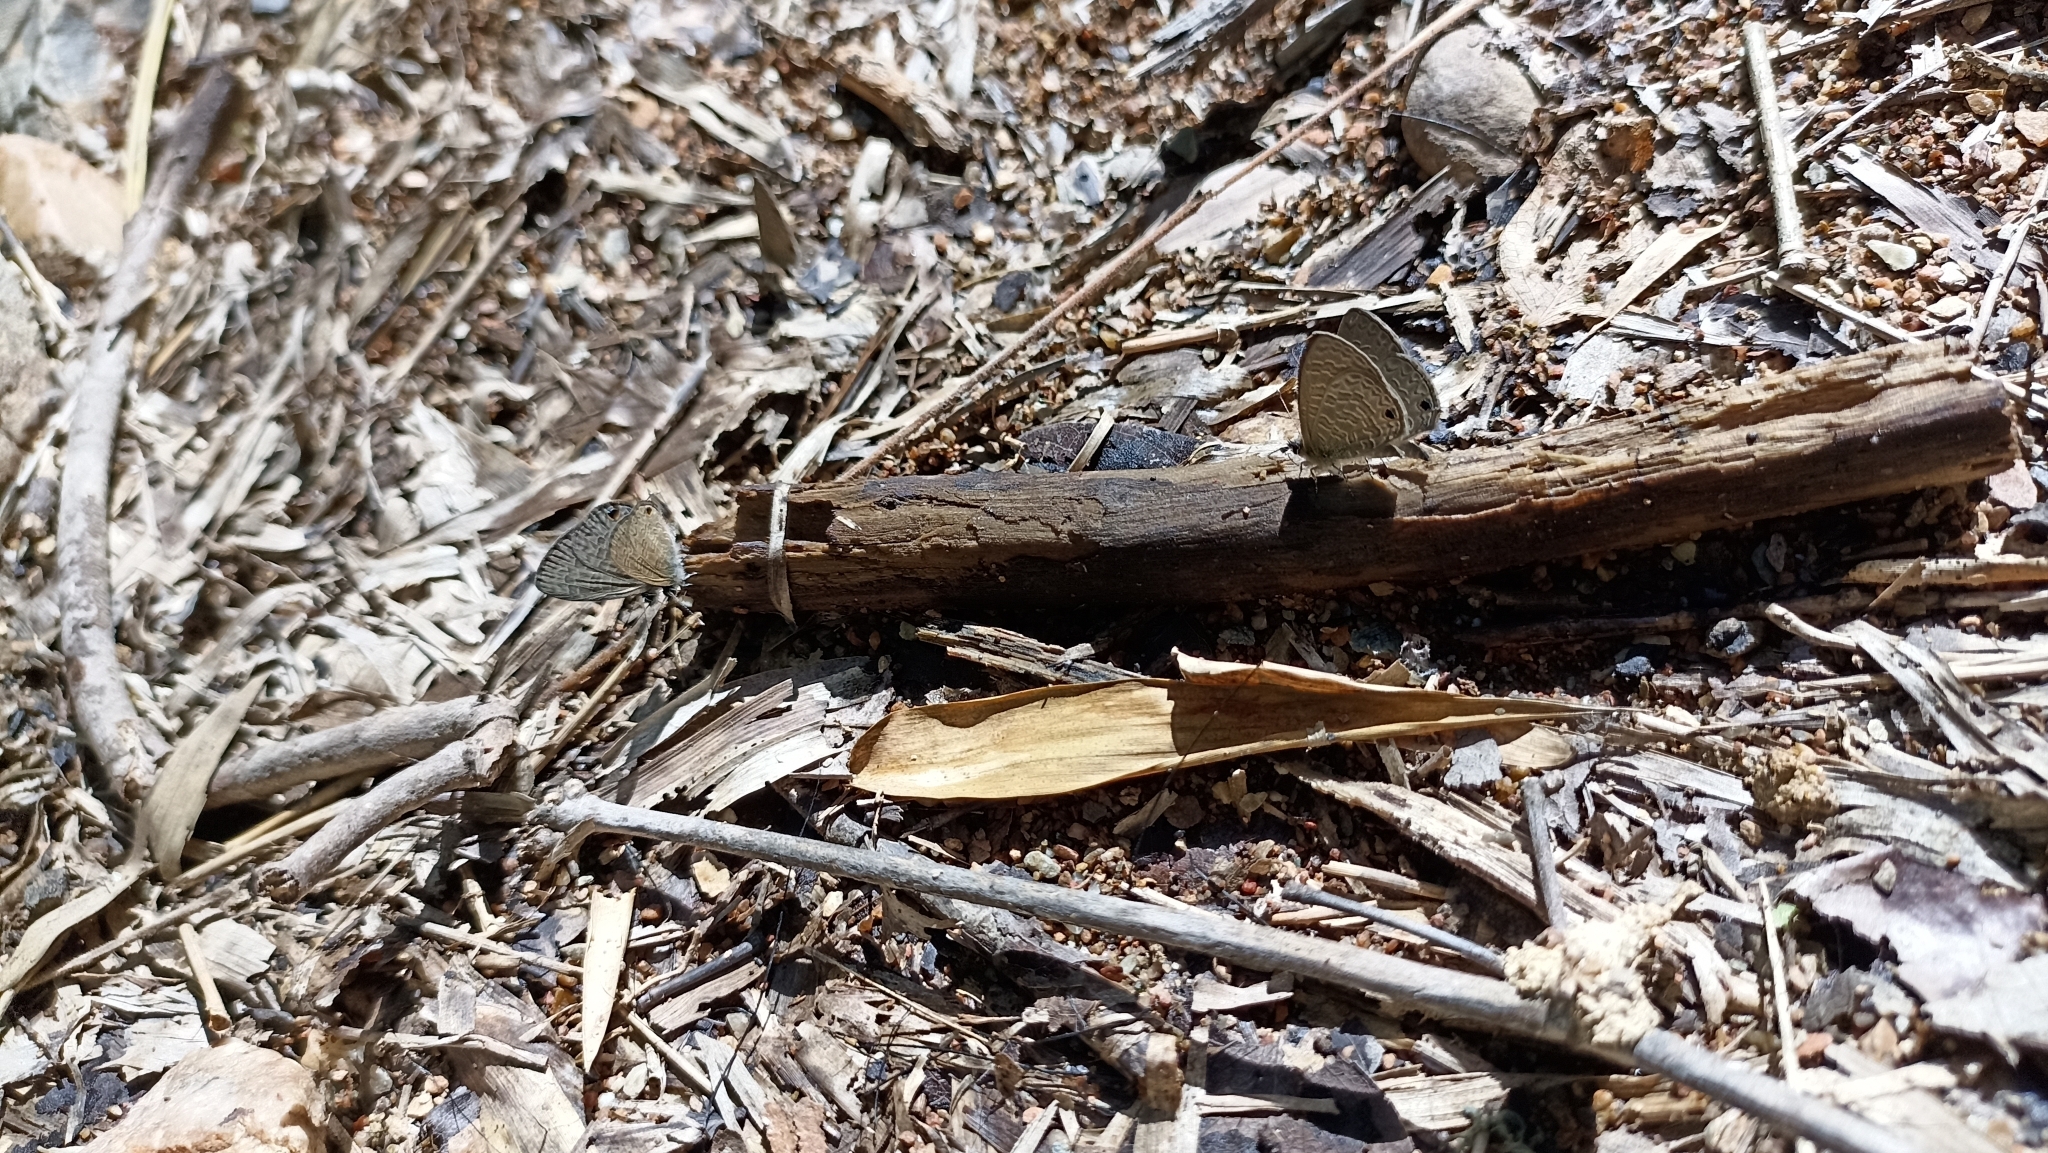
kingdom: Animalia
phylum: Arthropoda
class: Insecta
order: Lepidoptera
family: Lycaenidae
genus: Prosotas
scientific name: Prosotas dubiosa
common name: Tailless lineblue
